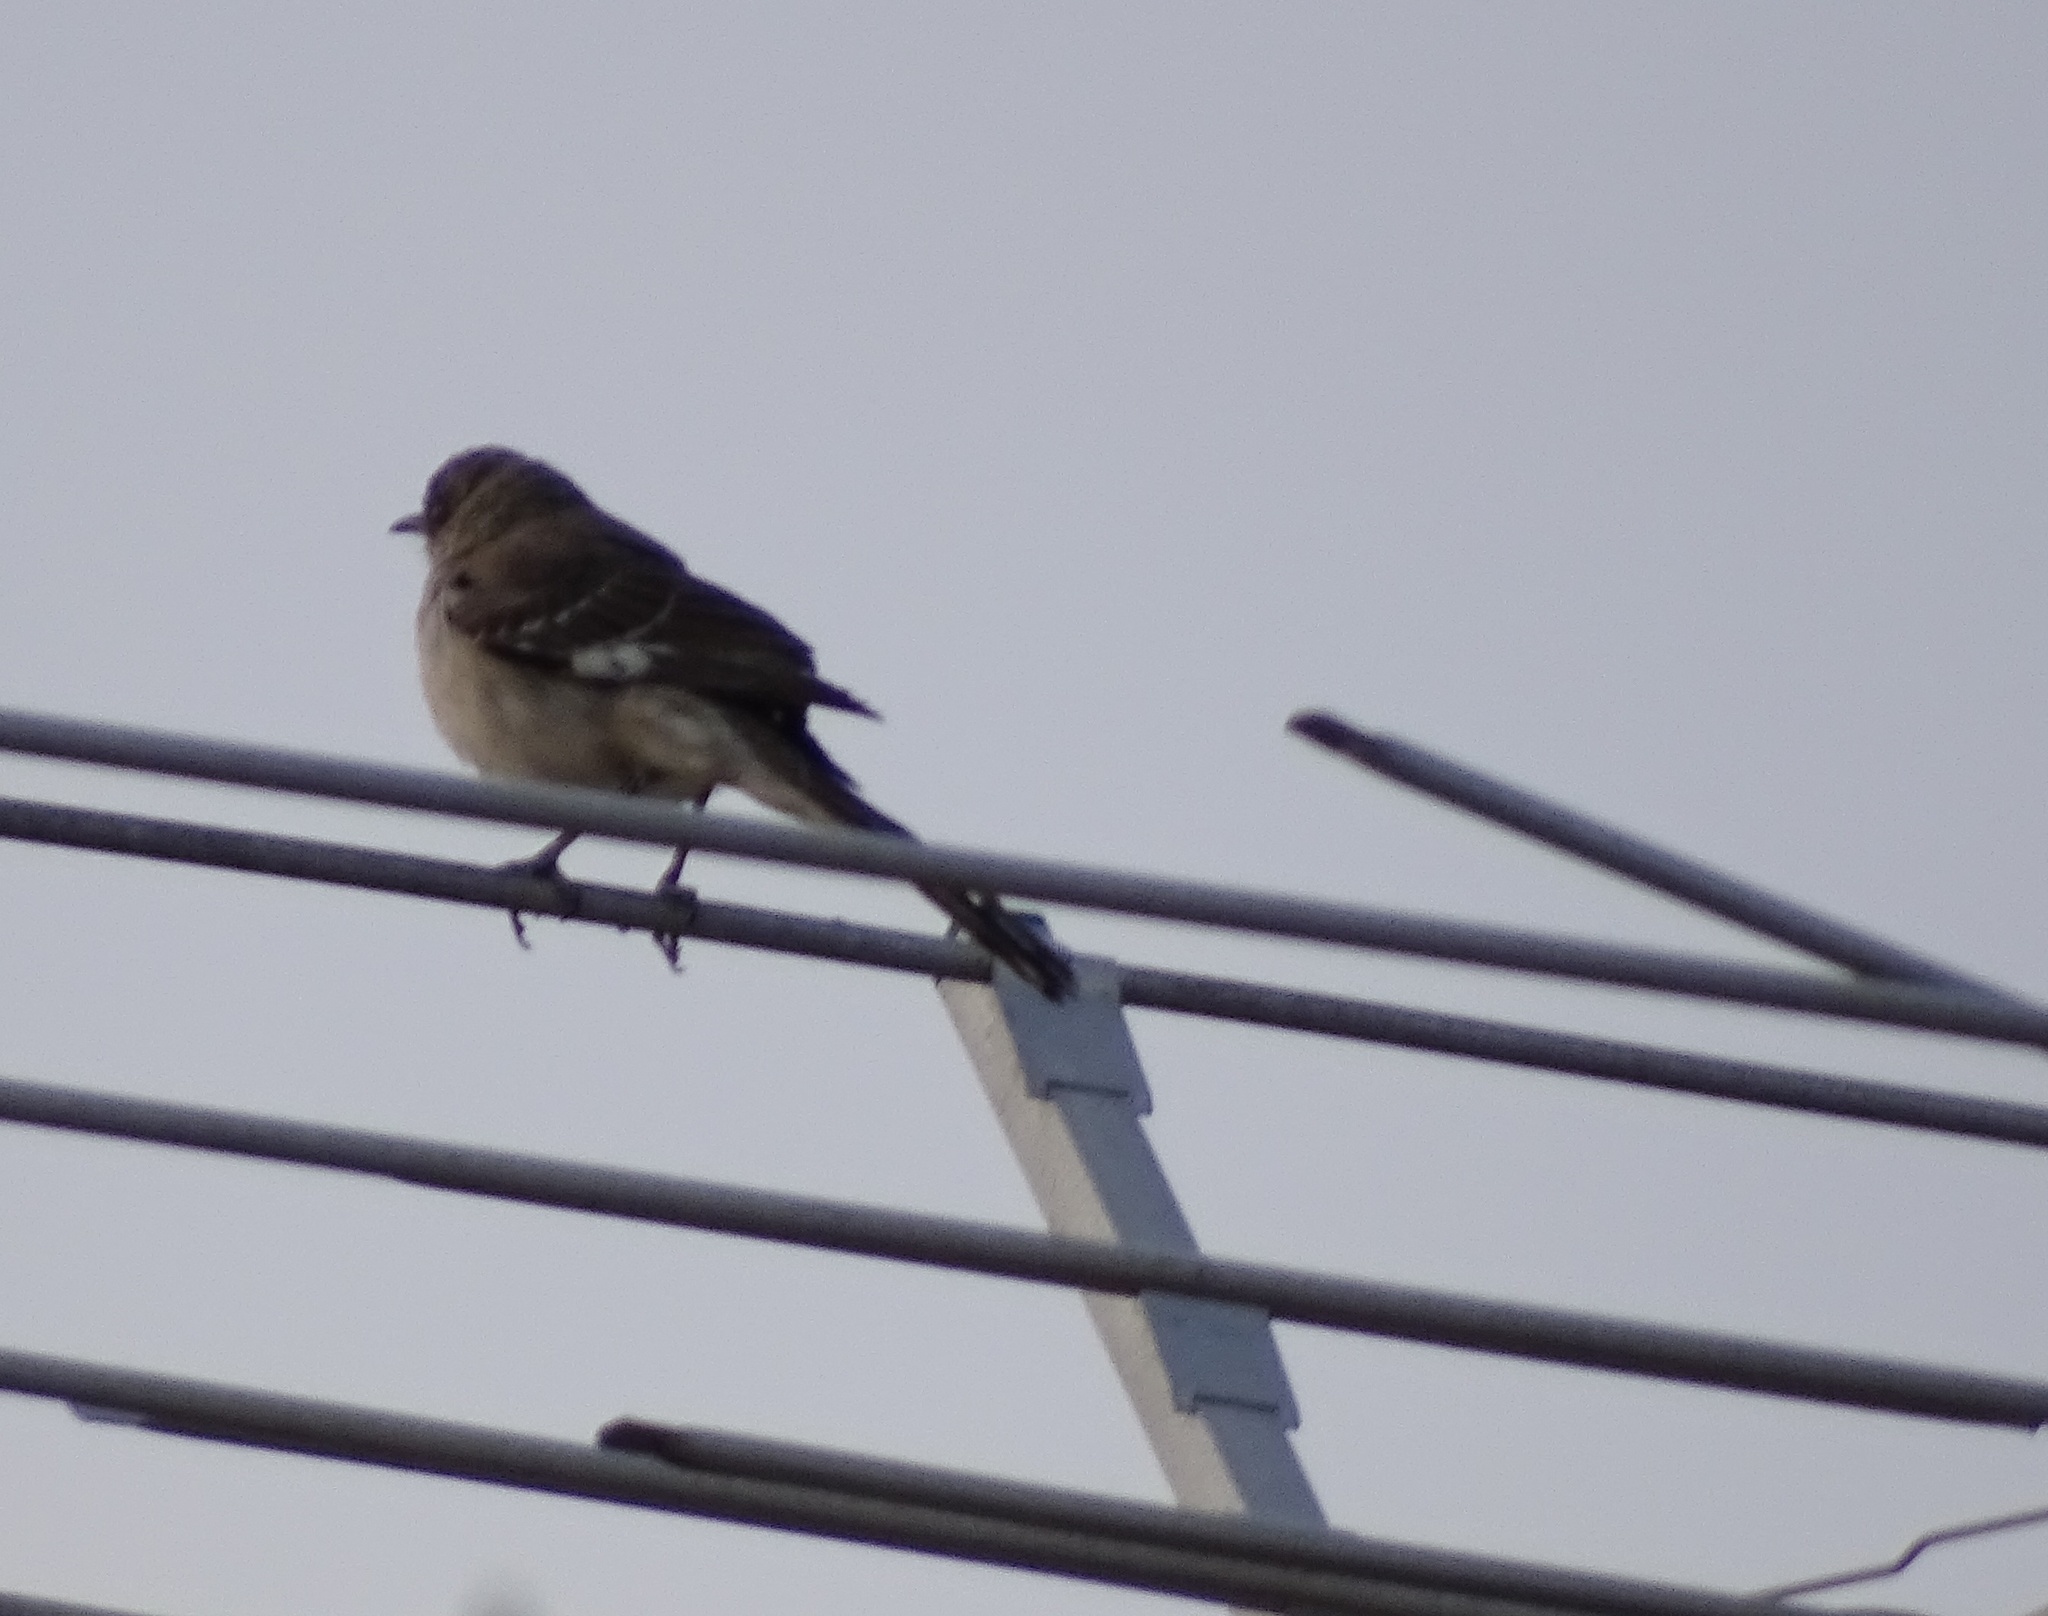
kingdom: Animalia
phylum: Chordata
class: Aves
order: Passeriformes
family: Mimidae
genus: Mimus
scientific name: Mimus polyglottos
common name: Northern mockingbird
